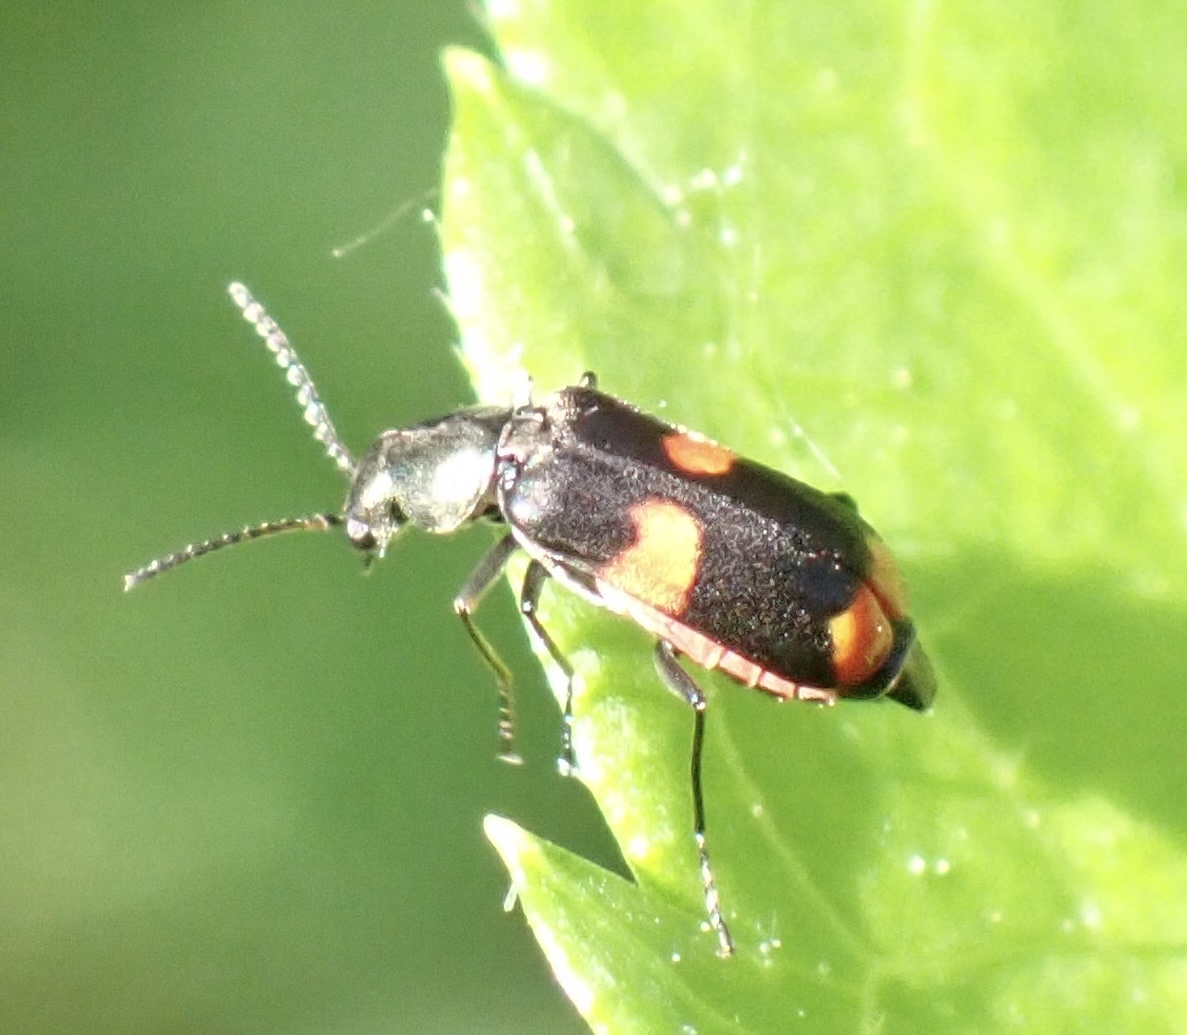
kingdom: Animalia
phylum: Arthropoda
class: Insecta
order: Coleoptera
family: Melyridae
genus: Anthocomus
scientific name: Anthocomus fasciatus
